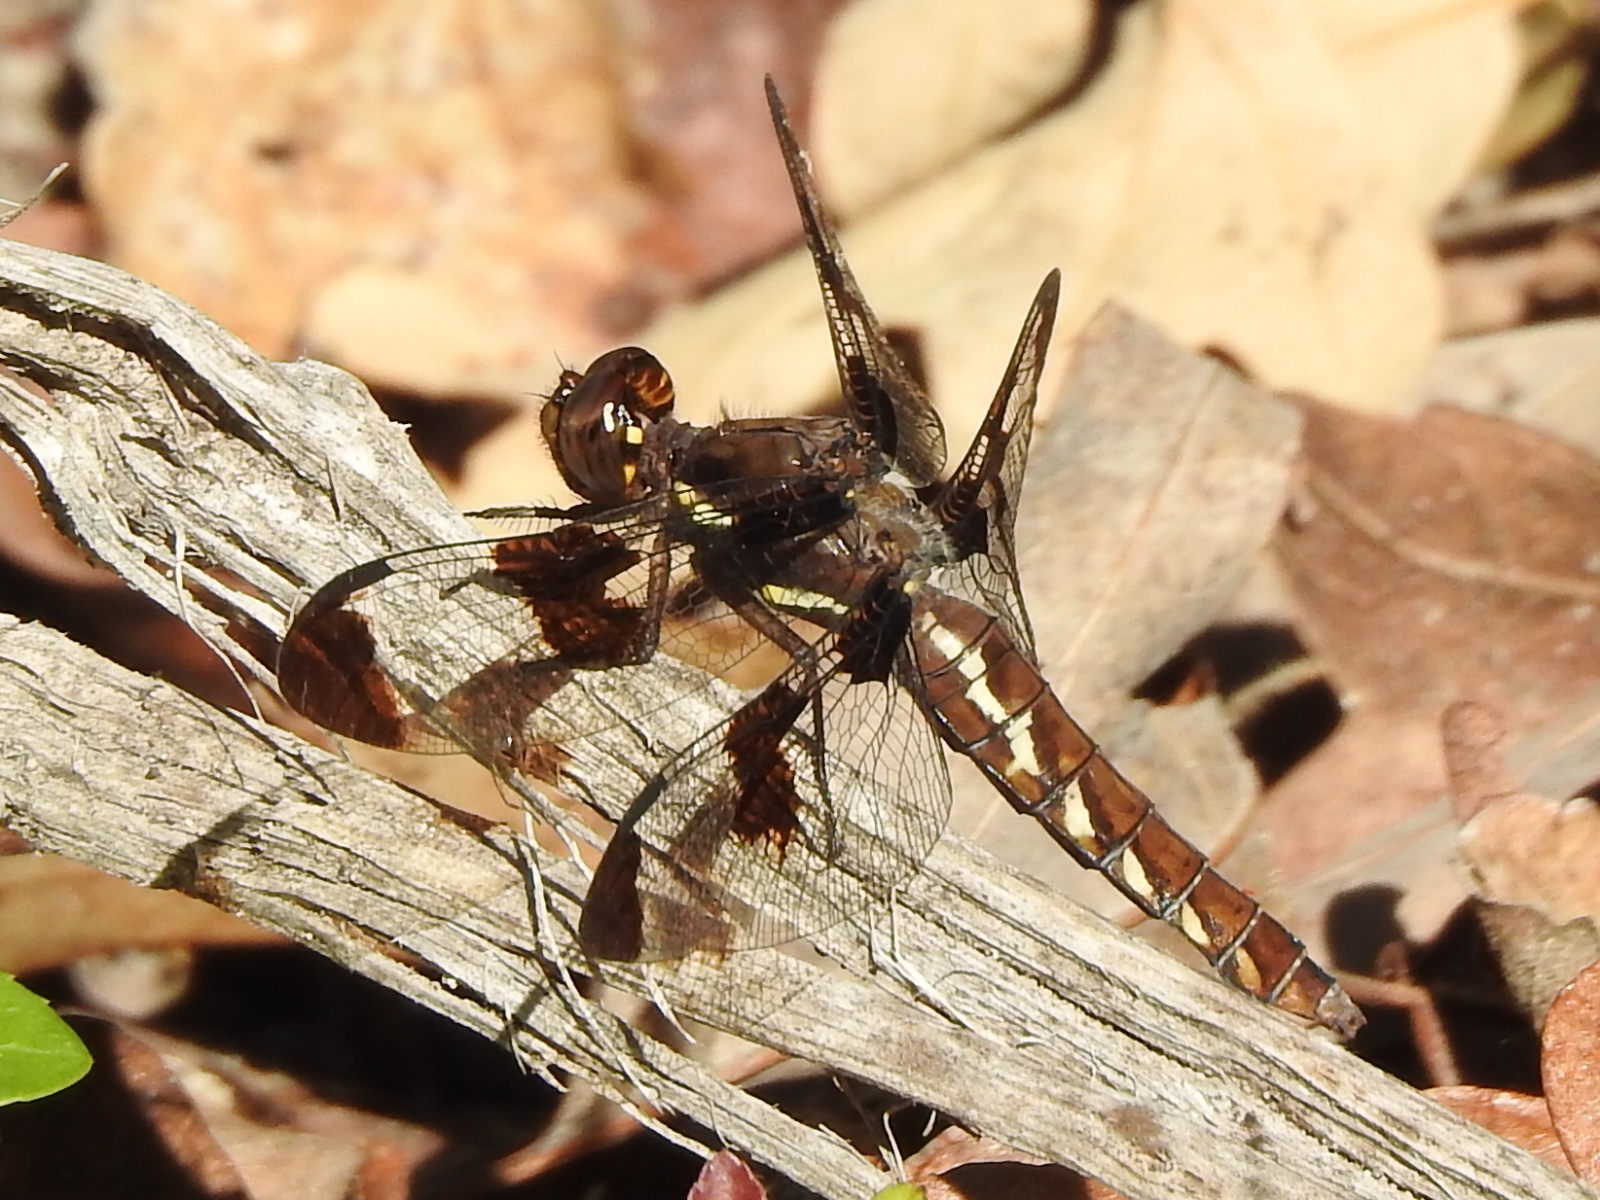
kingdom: Animalia
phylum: Arthropoda
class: Insecta
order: Odonata
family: Libellulidae
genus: Plathemis
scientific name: Plathemis lydia
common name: Common whitetail
